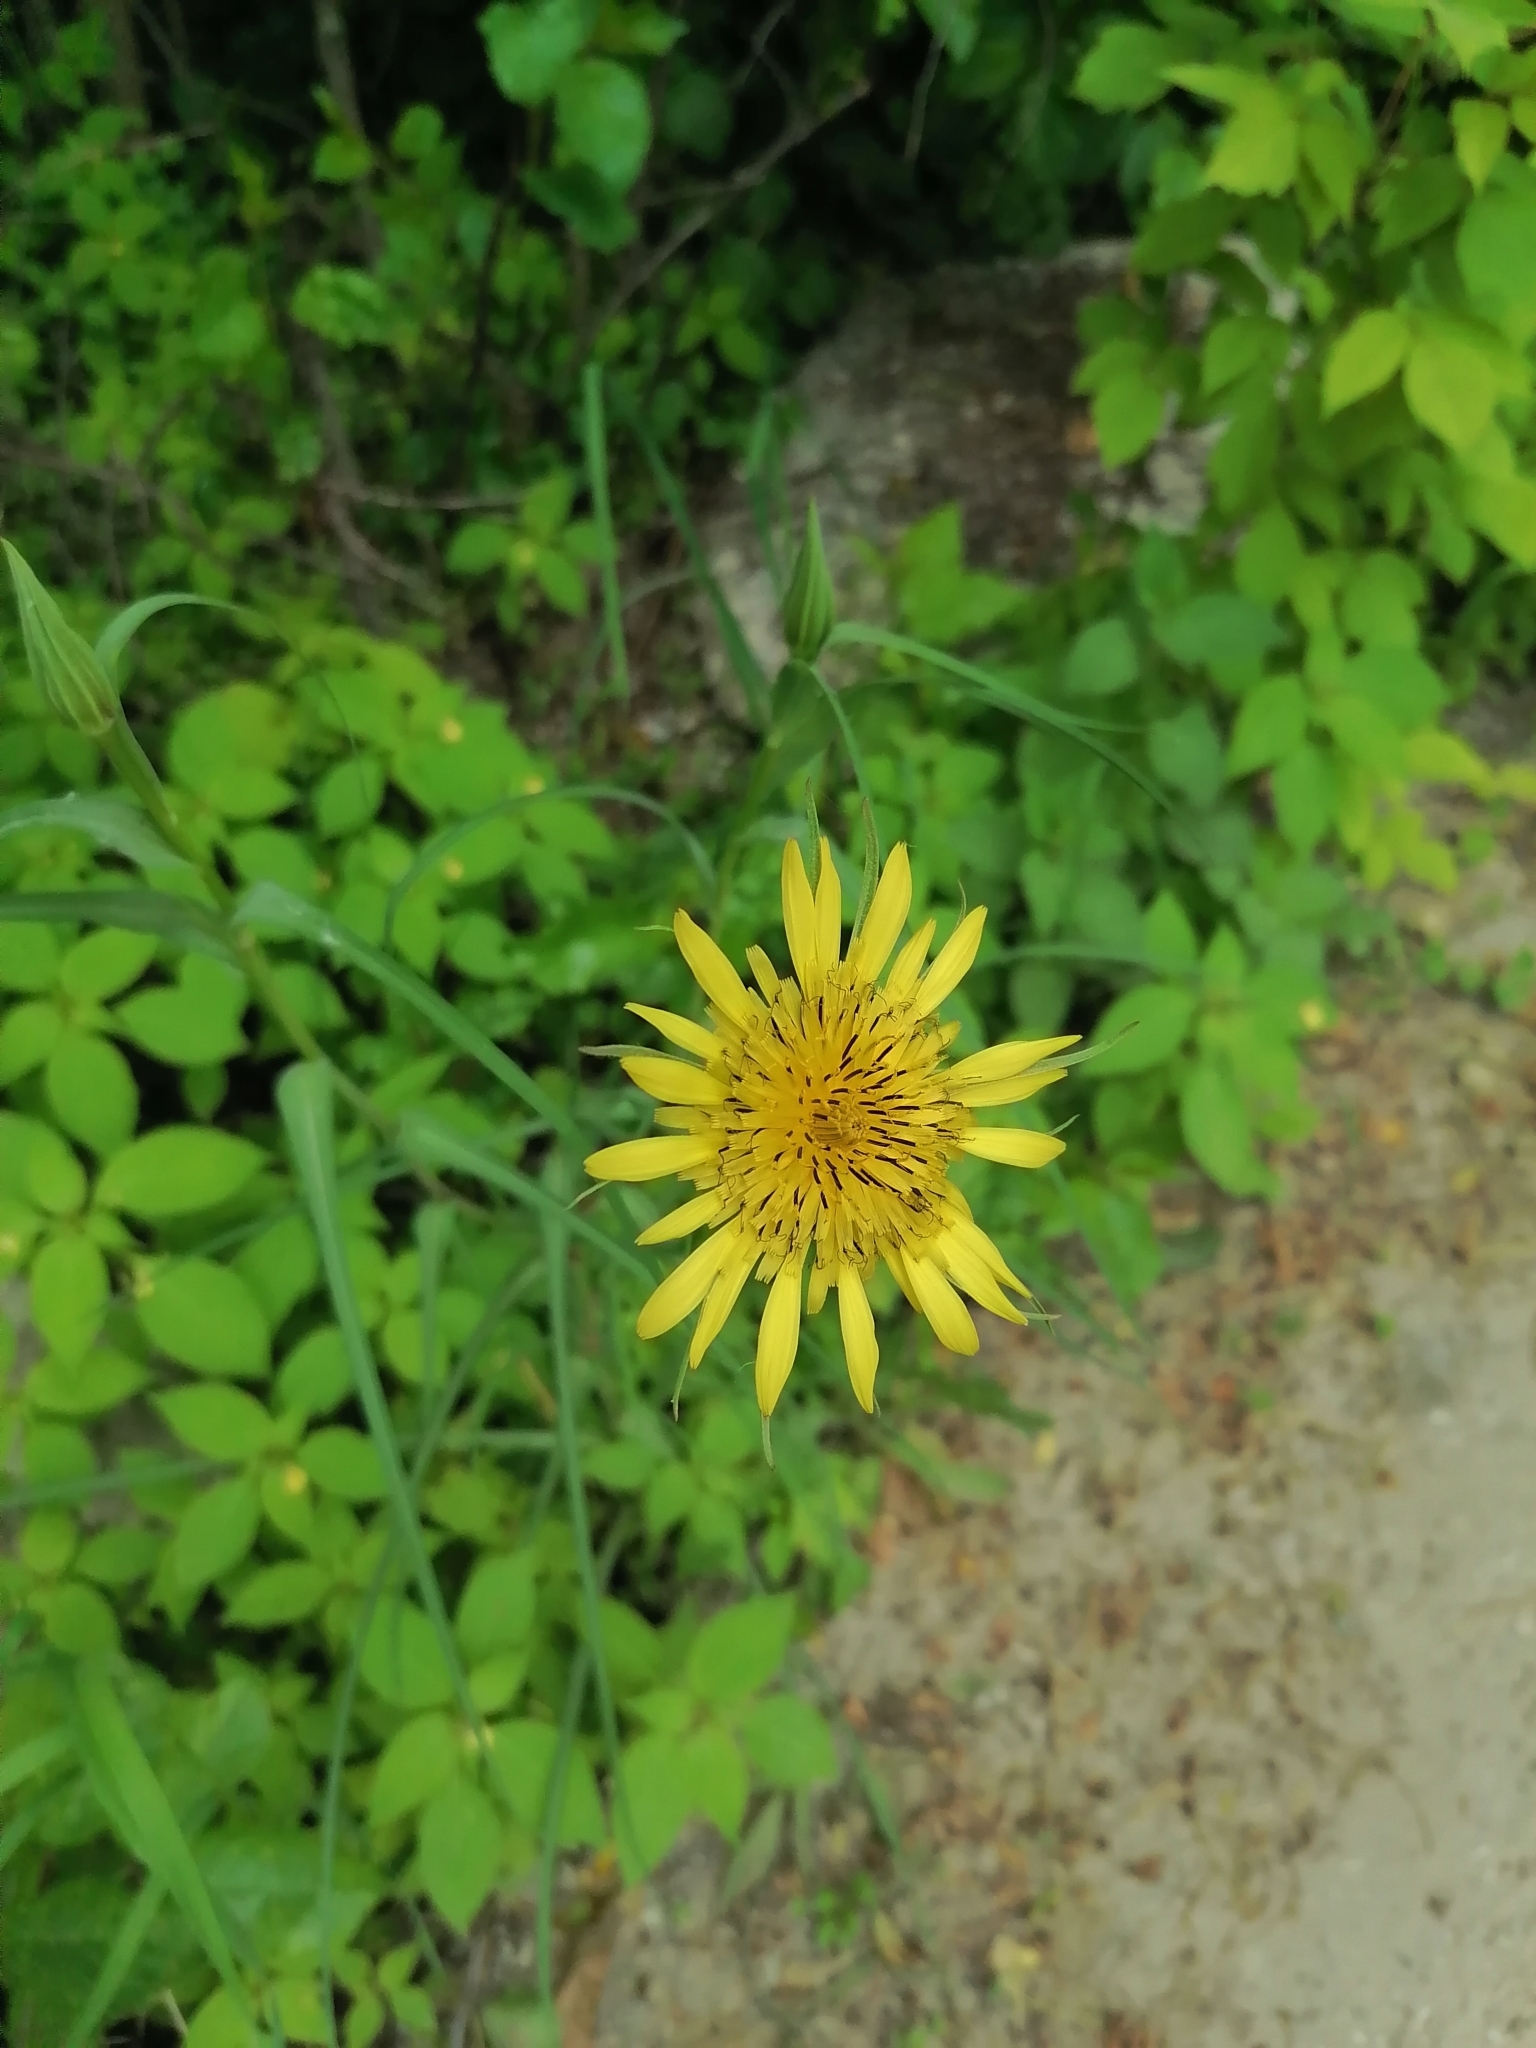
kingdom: Plantae
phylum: Tracheophyta
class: Magnoliopsida
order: Asterales
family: Asteraceae
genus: Tragopogon
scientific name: Tragopogon orientalis
